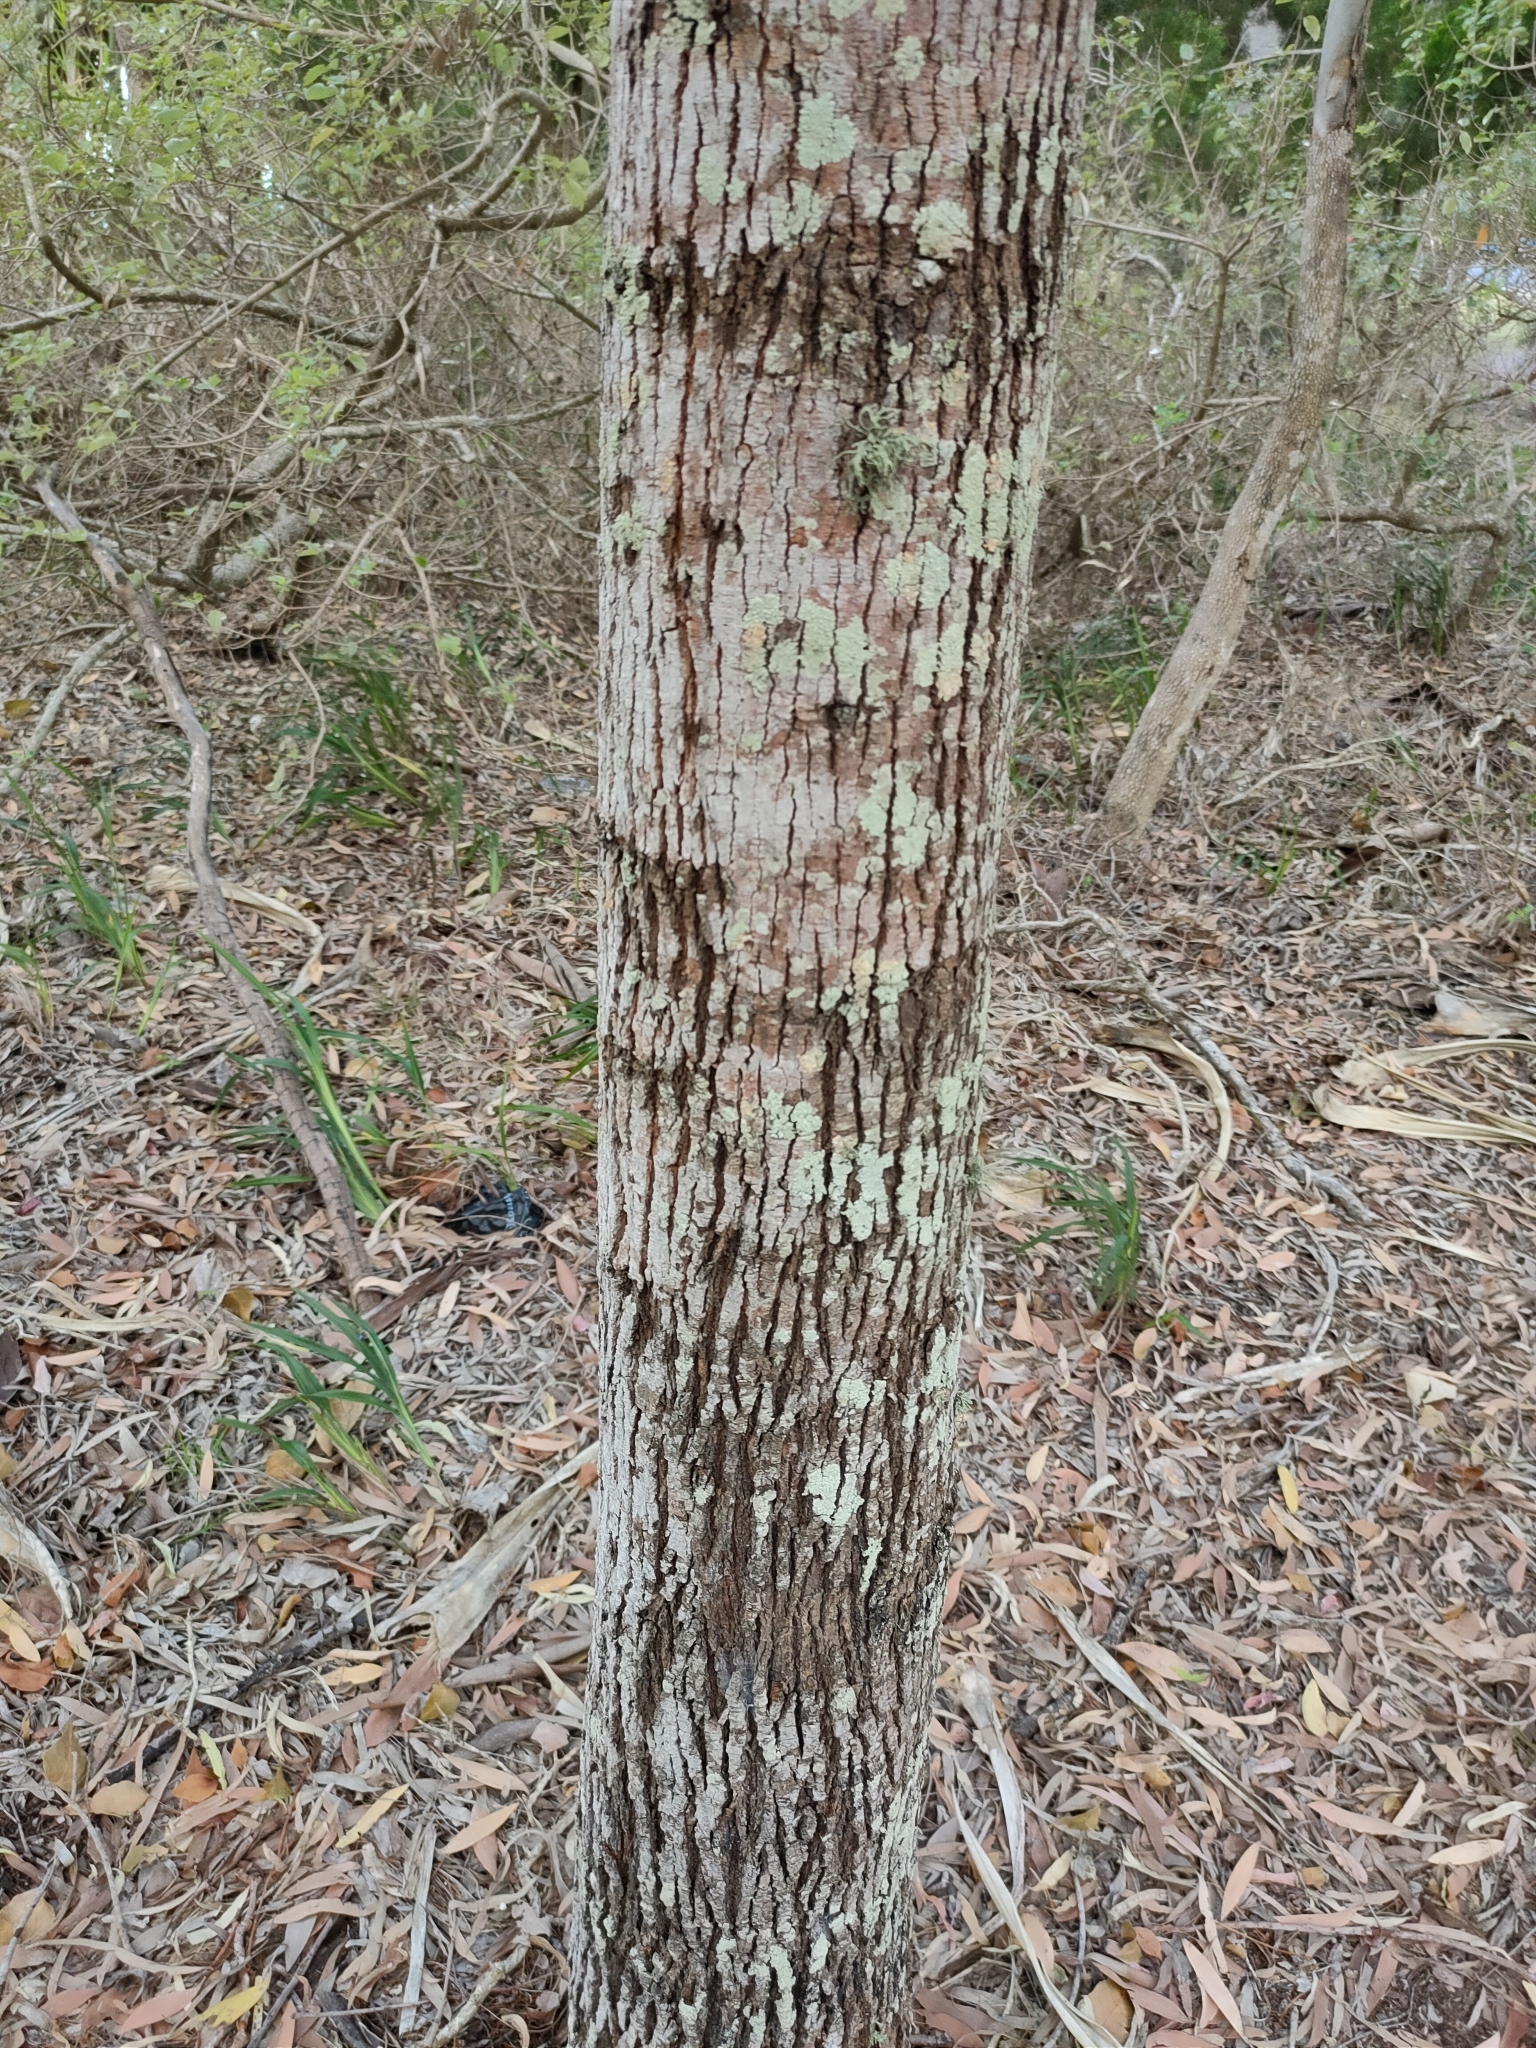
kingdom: Plantae
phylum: Tracheophyta
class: Magnoliopsida
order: Malvales
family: Malvaceae
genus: Brachychiton
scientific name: Brachychiton populneus
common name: Kurrajong
